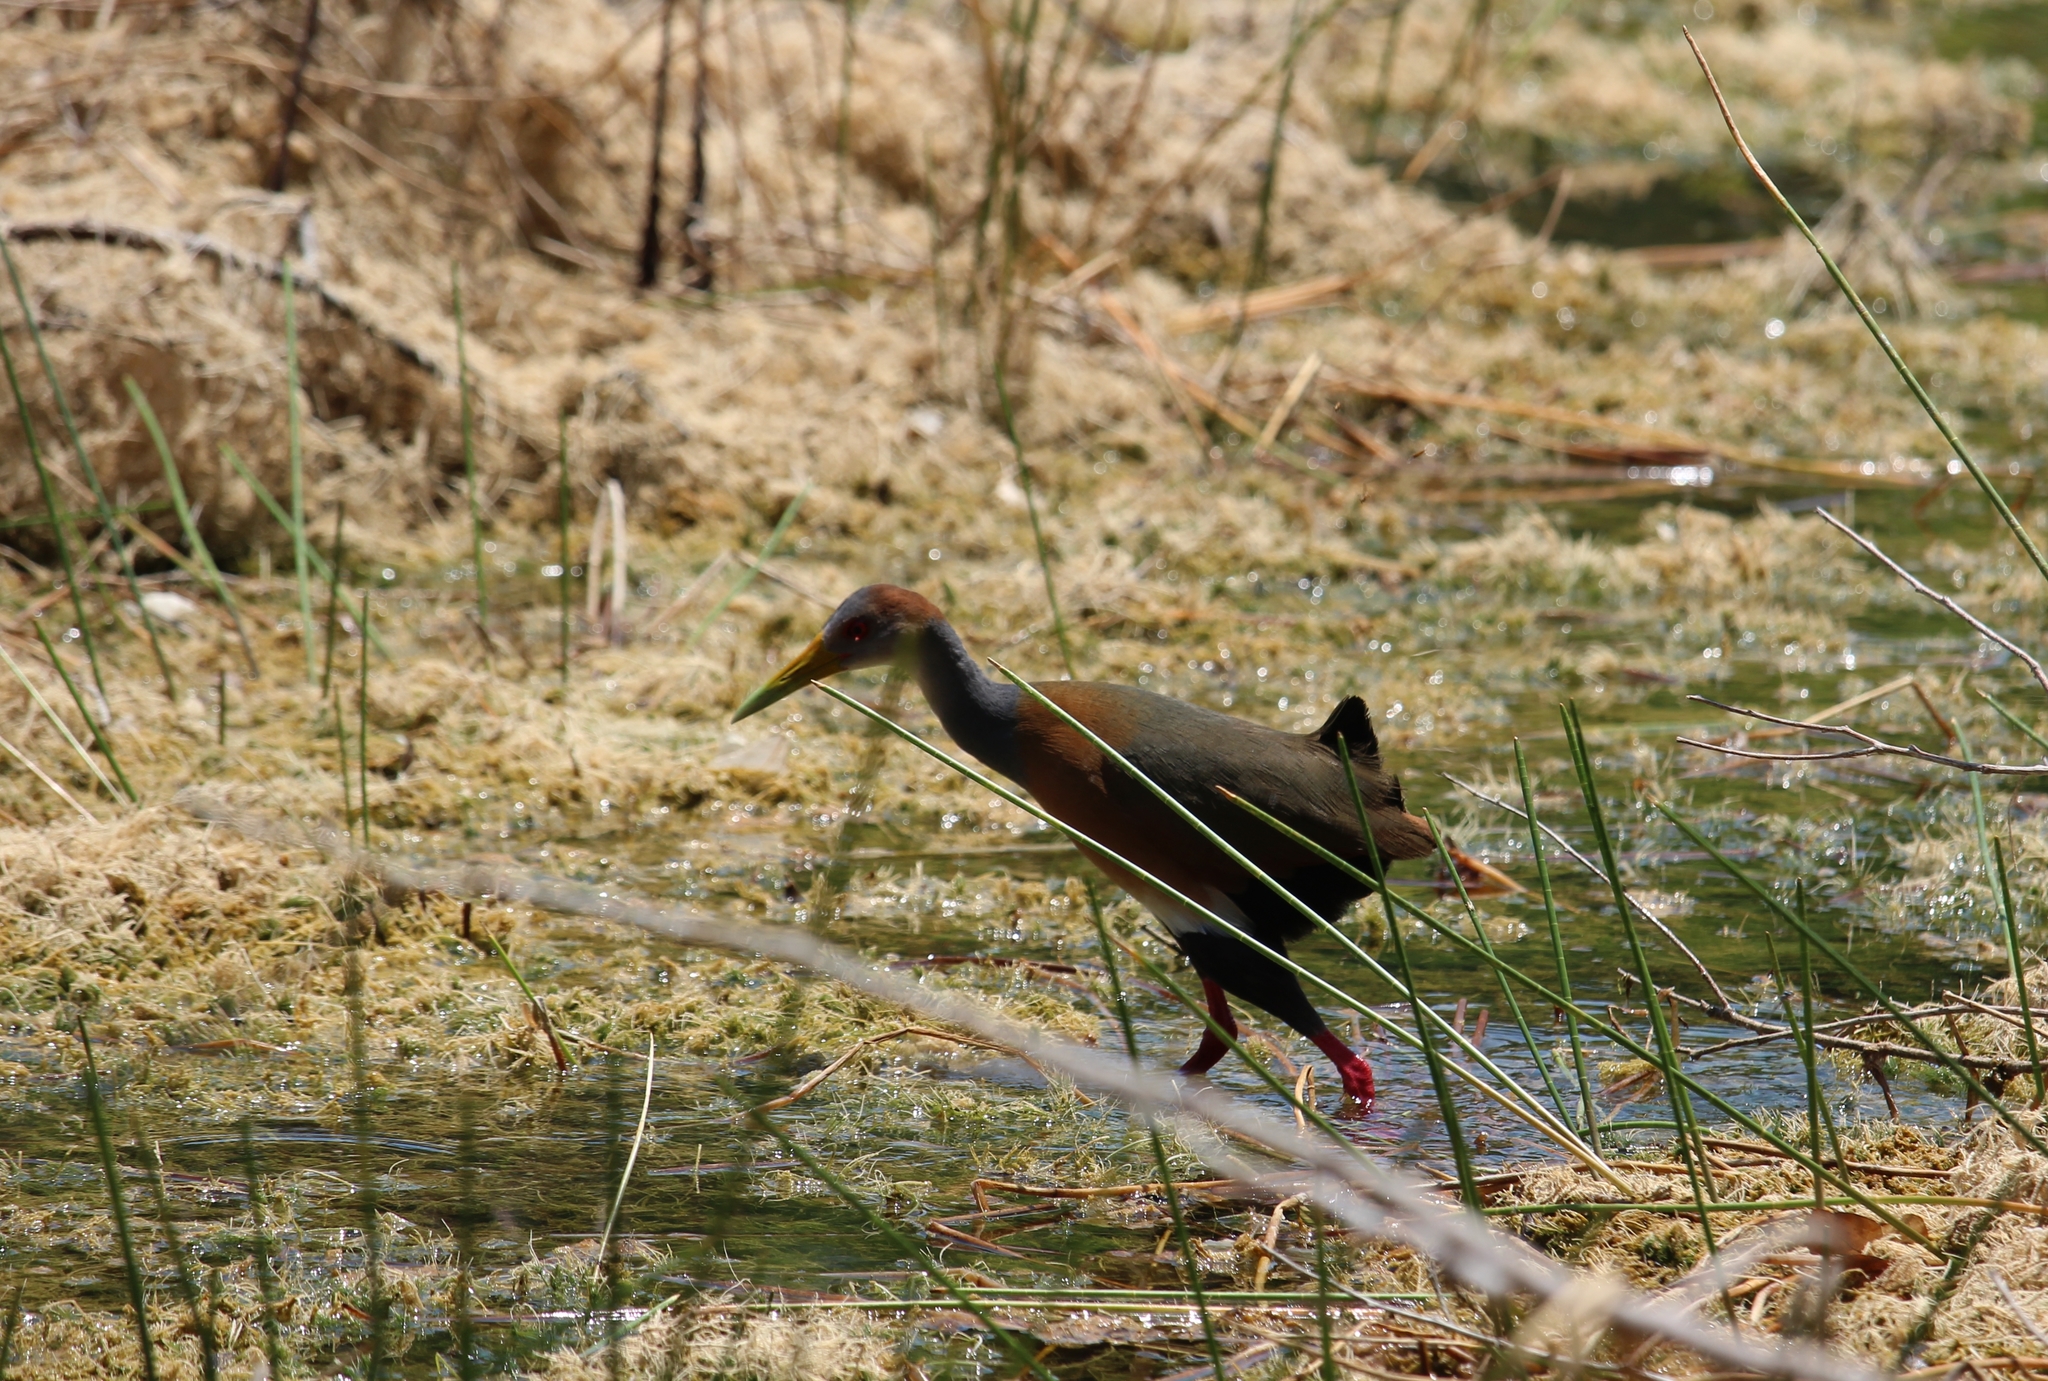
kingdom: Animalia
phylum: Chordata
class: Aves
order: Gruiformes
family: Rallidae
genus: Aramides
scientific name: Aramides albiventris
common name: Russet-naped wood-rail
